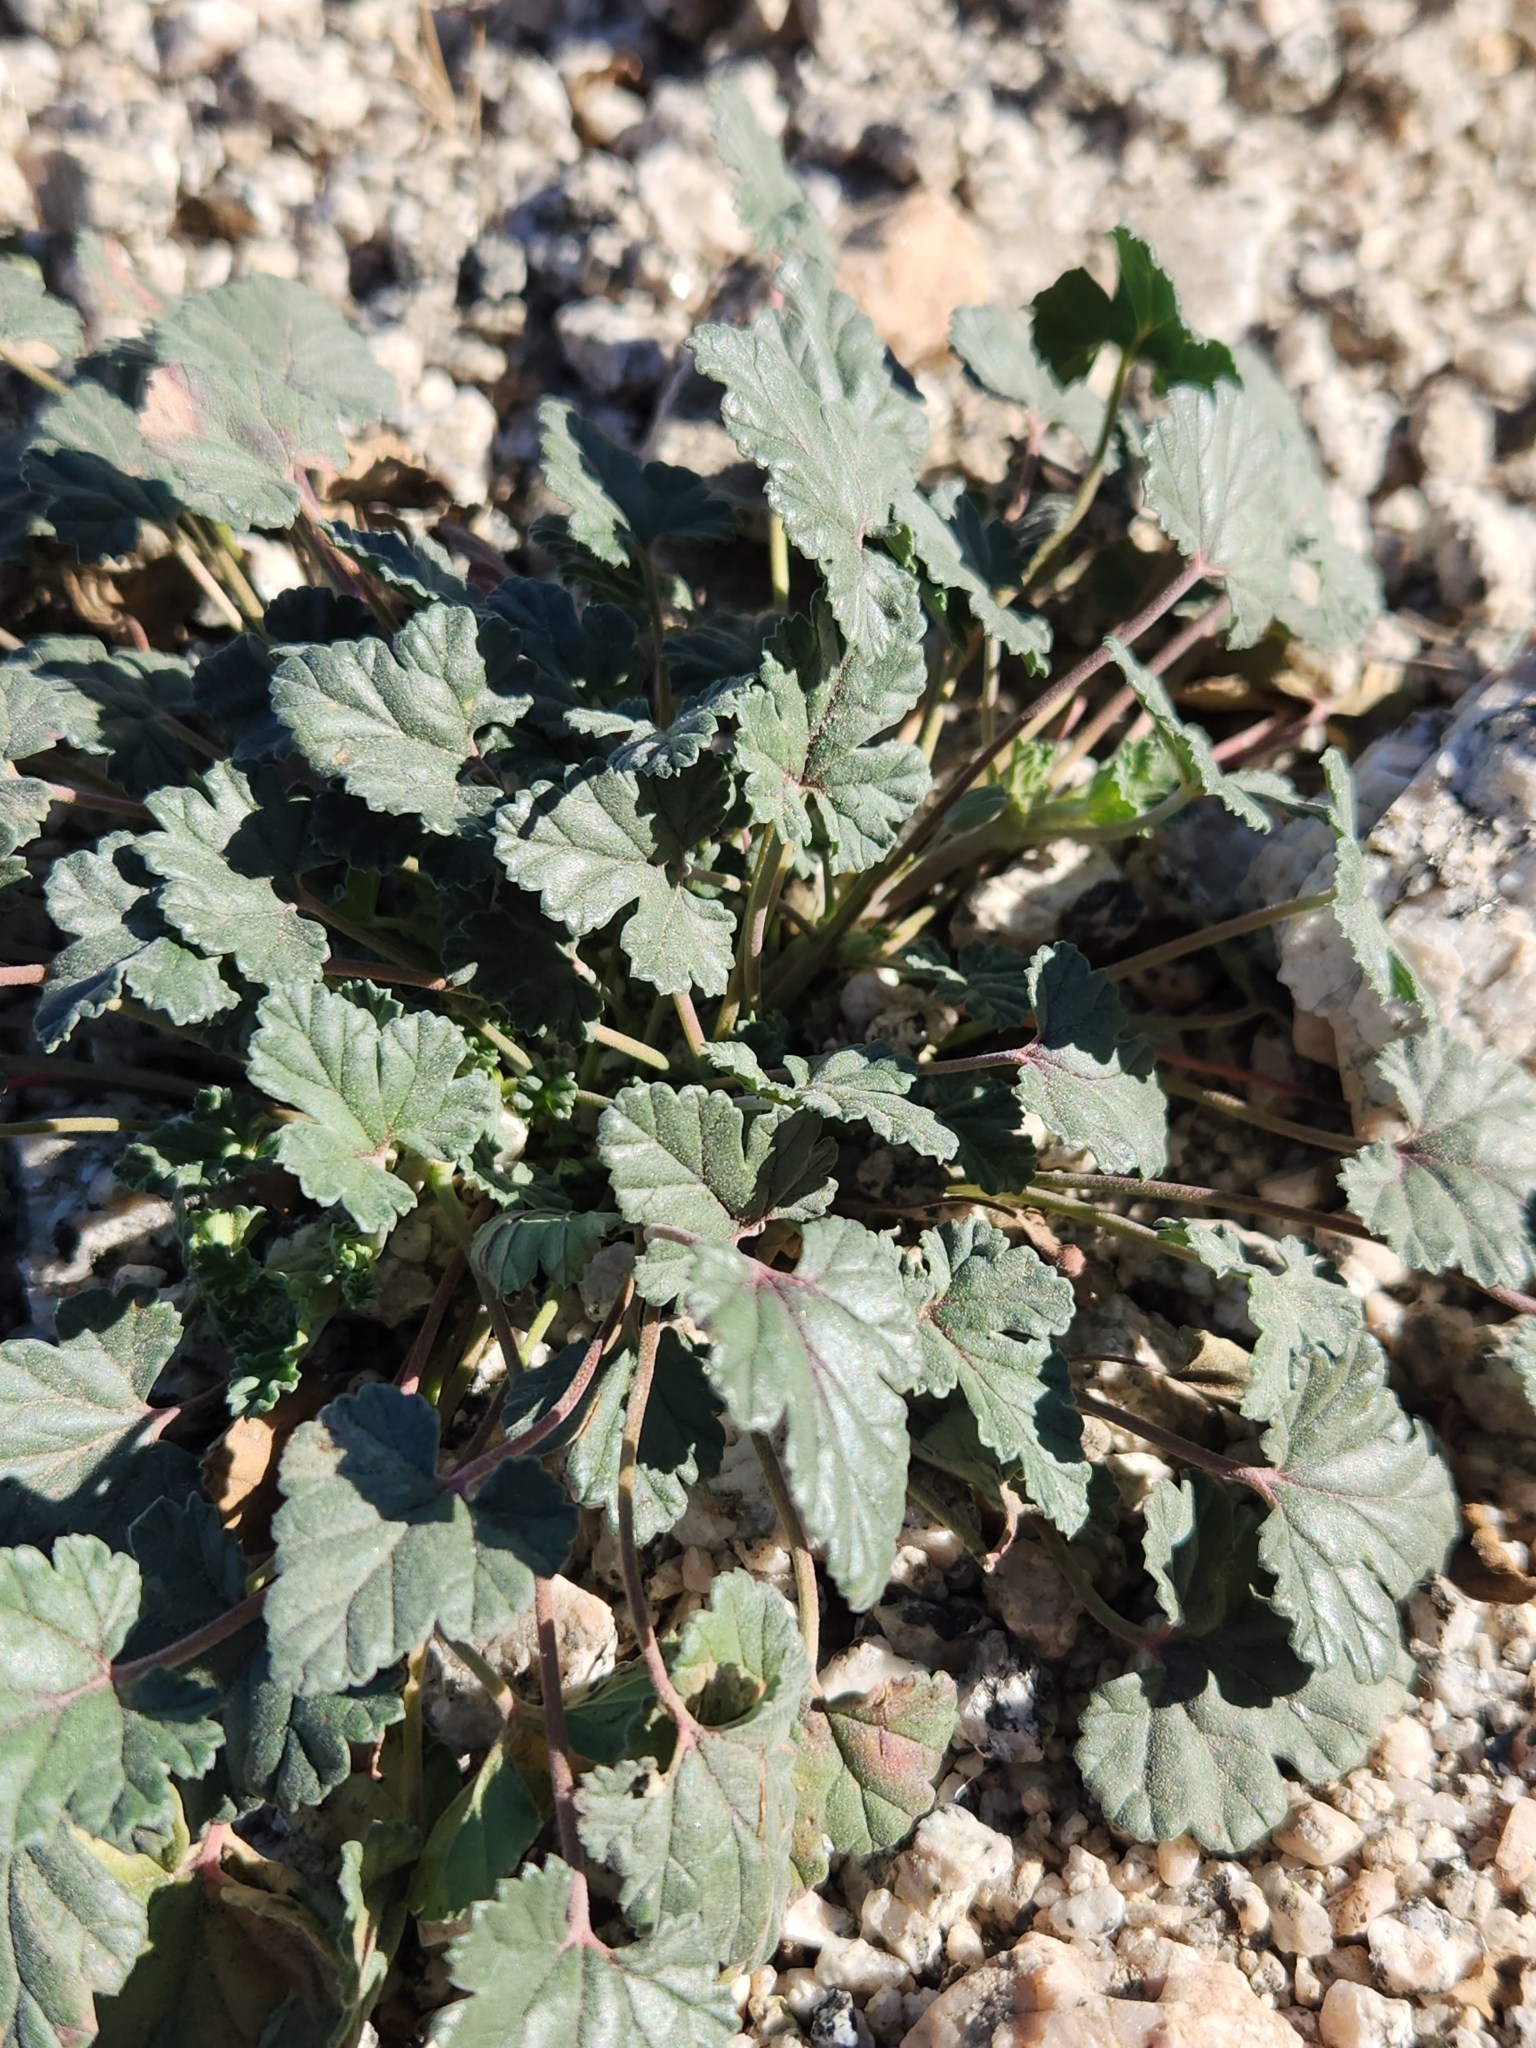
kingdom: Plantae
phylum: Tracheophyta
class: Magnoliopsida
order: Geraniales
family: Geraniaceae
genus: Erodium
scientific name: Erodium texanum
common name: Texas stork's-bill
